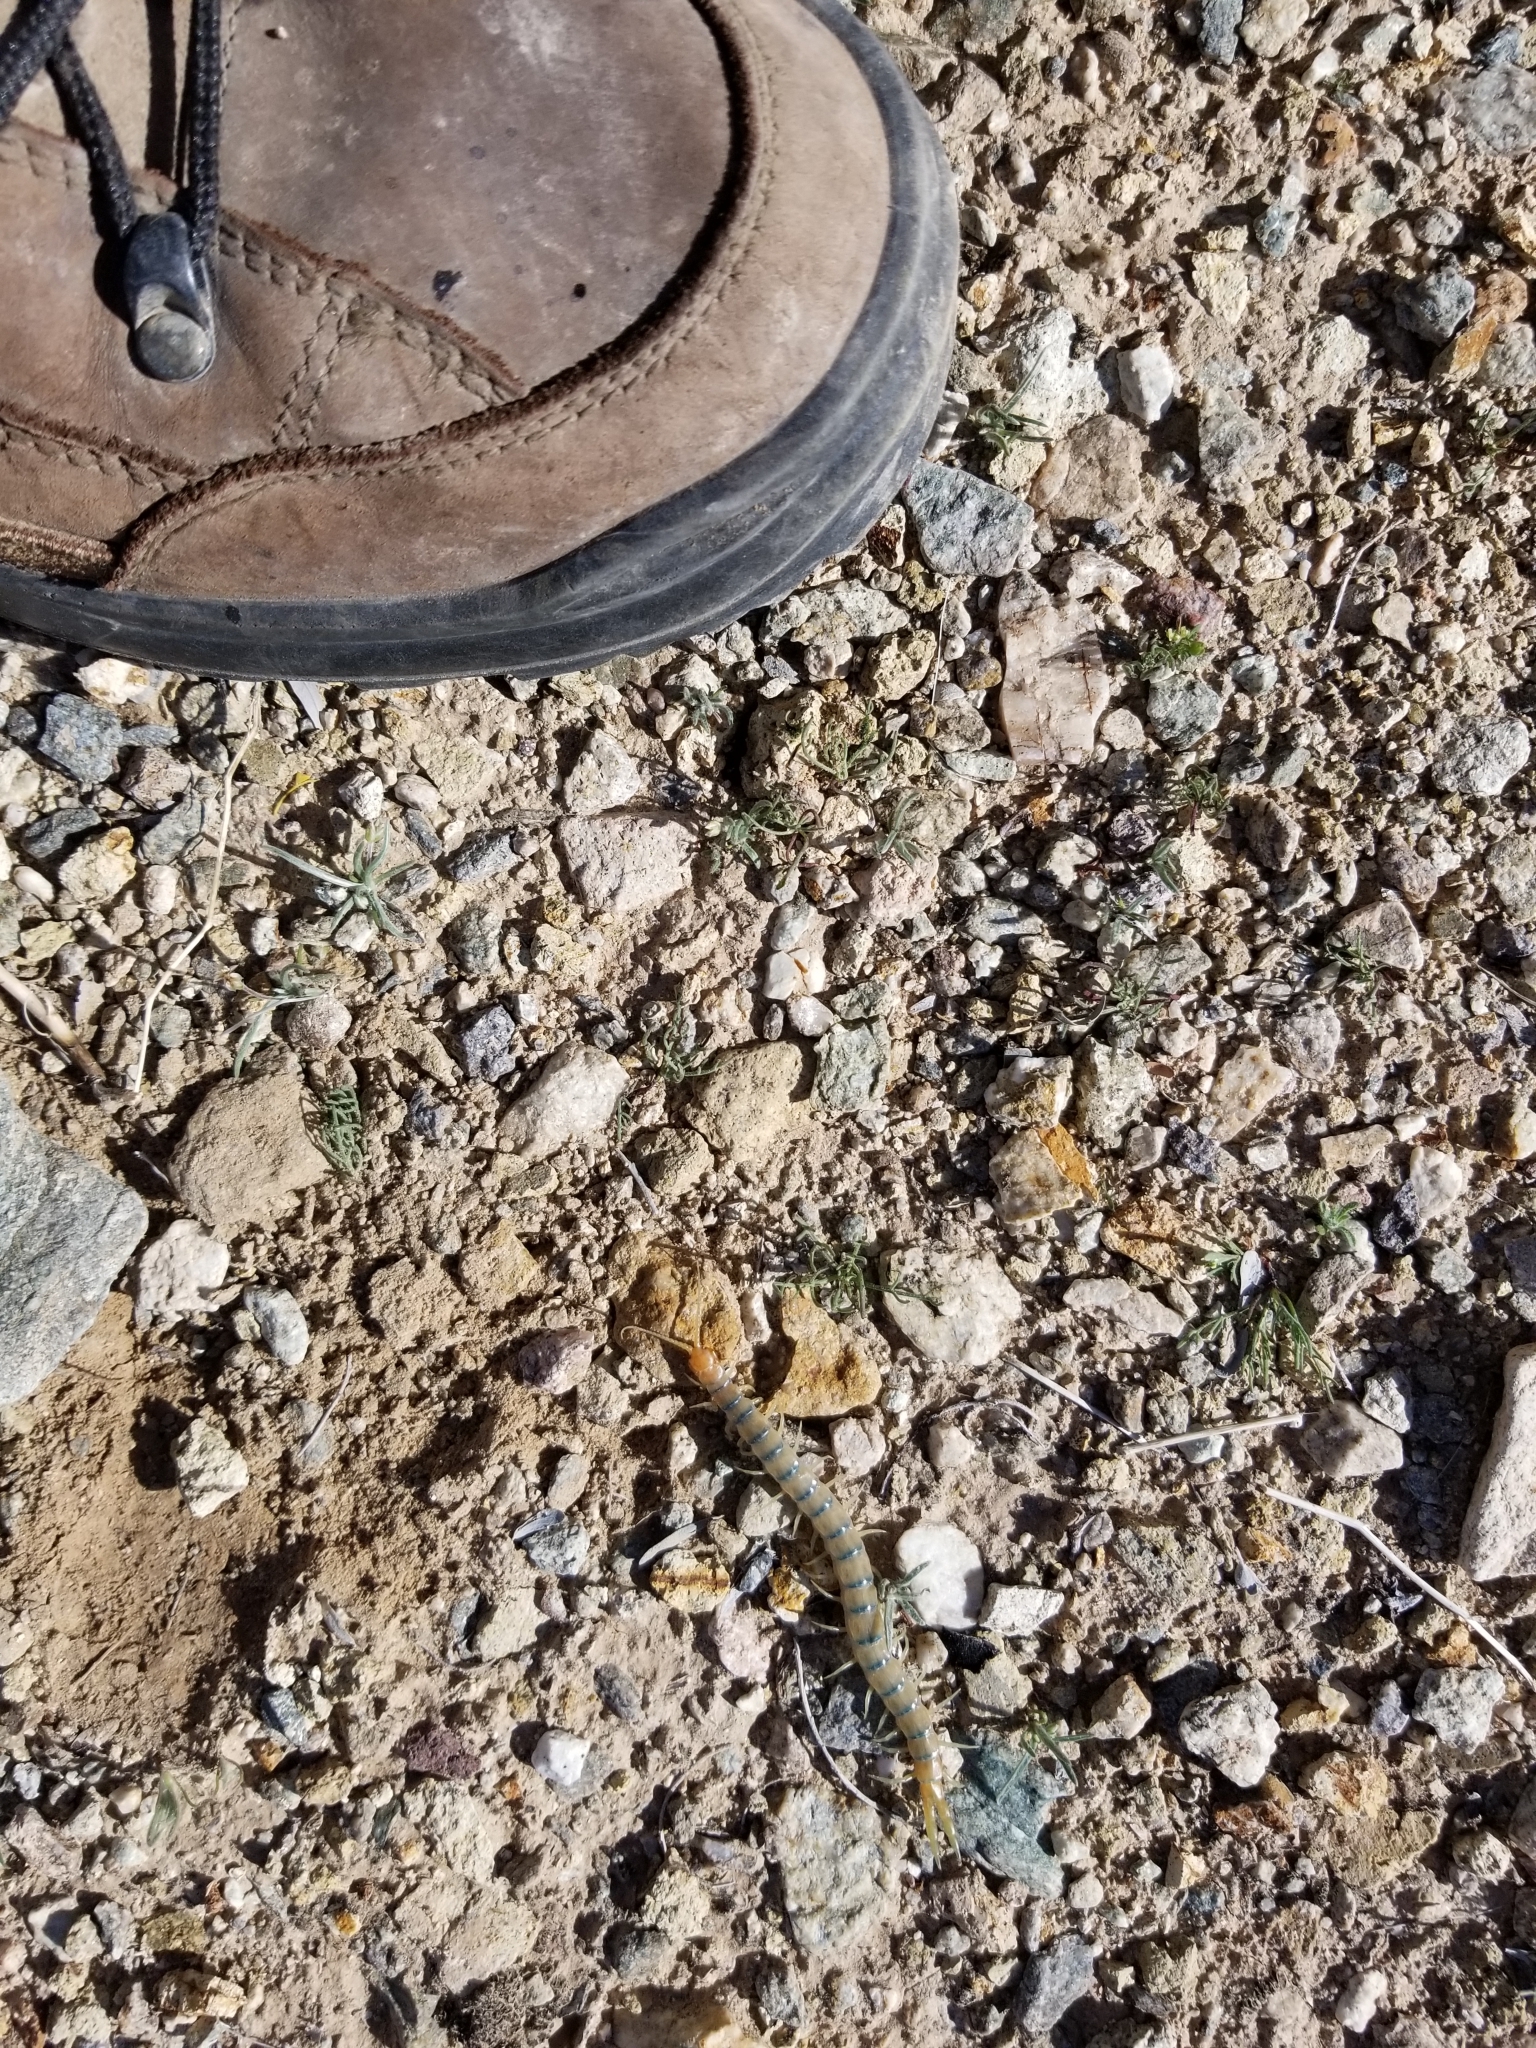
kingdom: Animalia
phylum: Arthropoda
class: Chilopoda
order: Scolopendromorpha
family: Scolopendridae
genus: Scolopendra
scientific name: Scolopendra polymorpha
